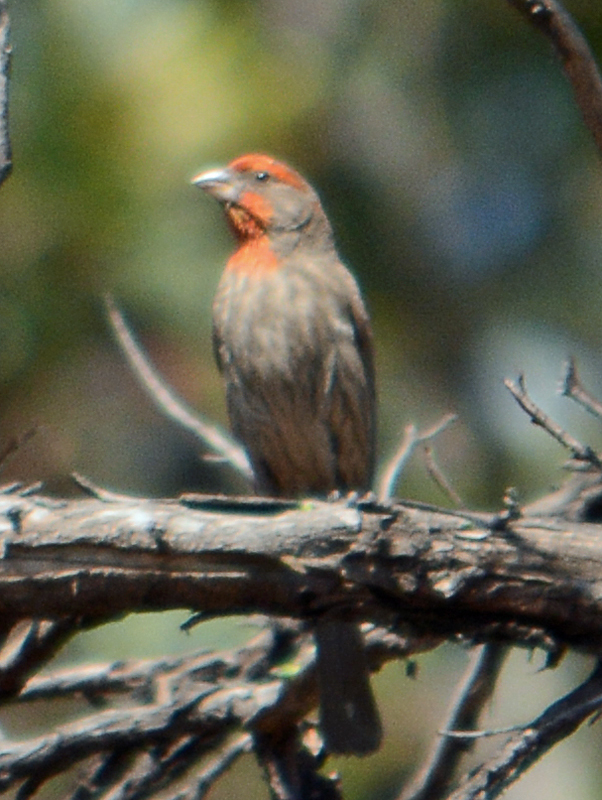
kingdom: Animalia
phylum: Chordata
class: Aves
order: Passeriformes
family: Fringillidae
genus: Haemorhous
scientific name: Haemorhous mexicanus
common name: House finch
